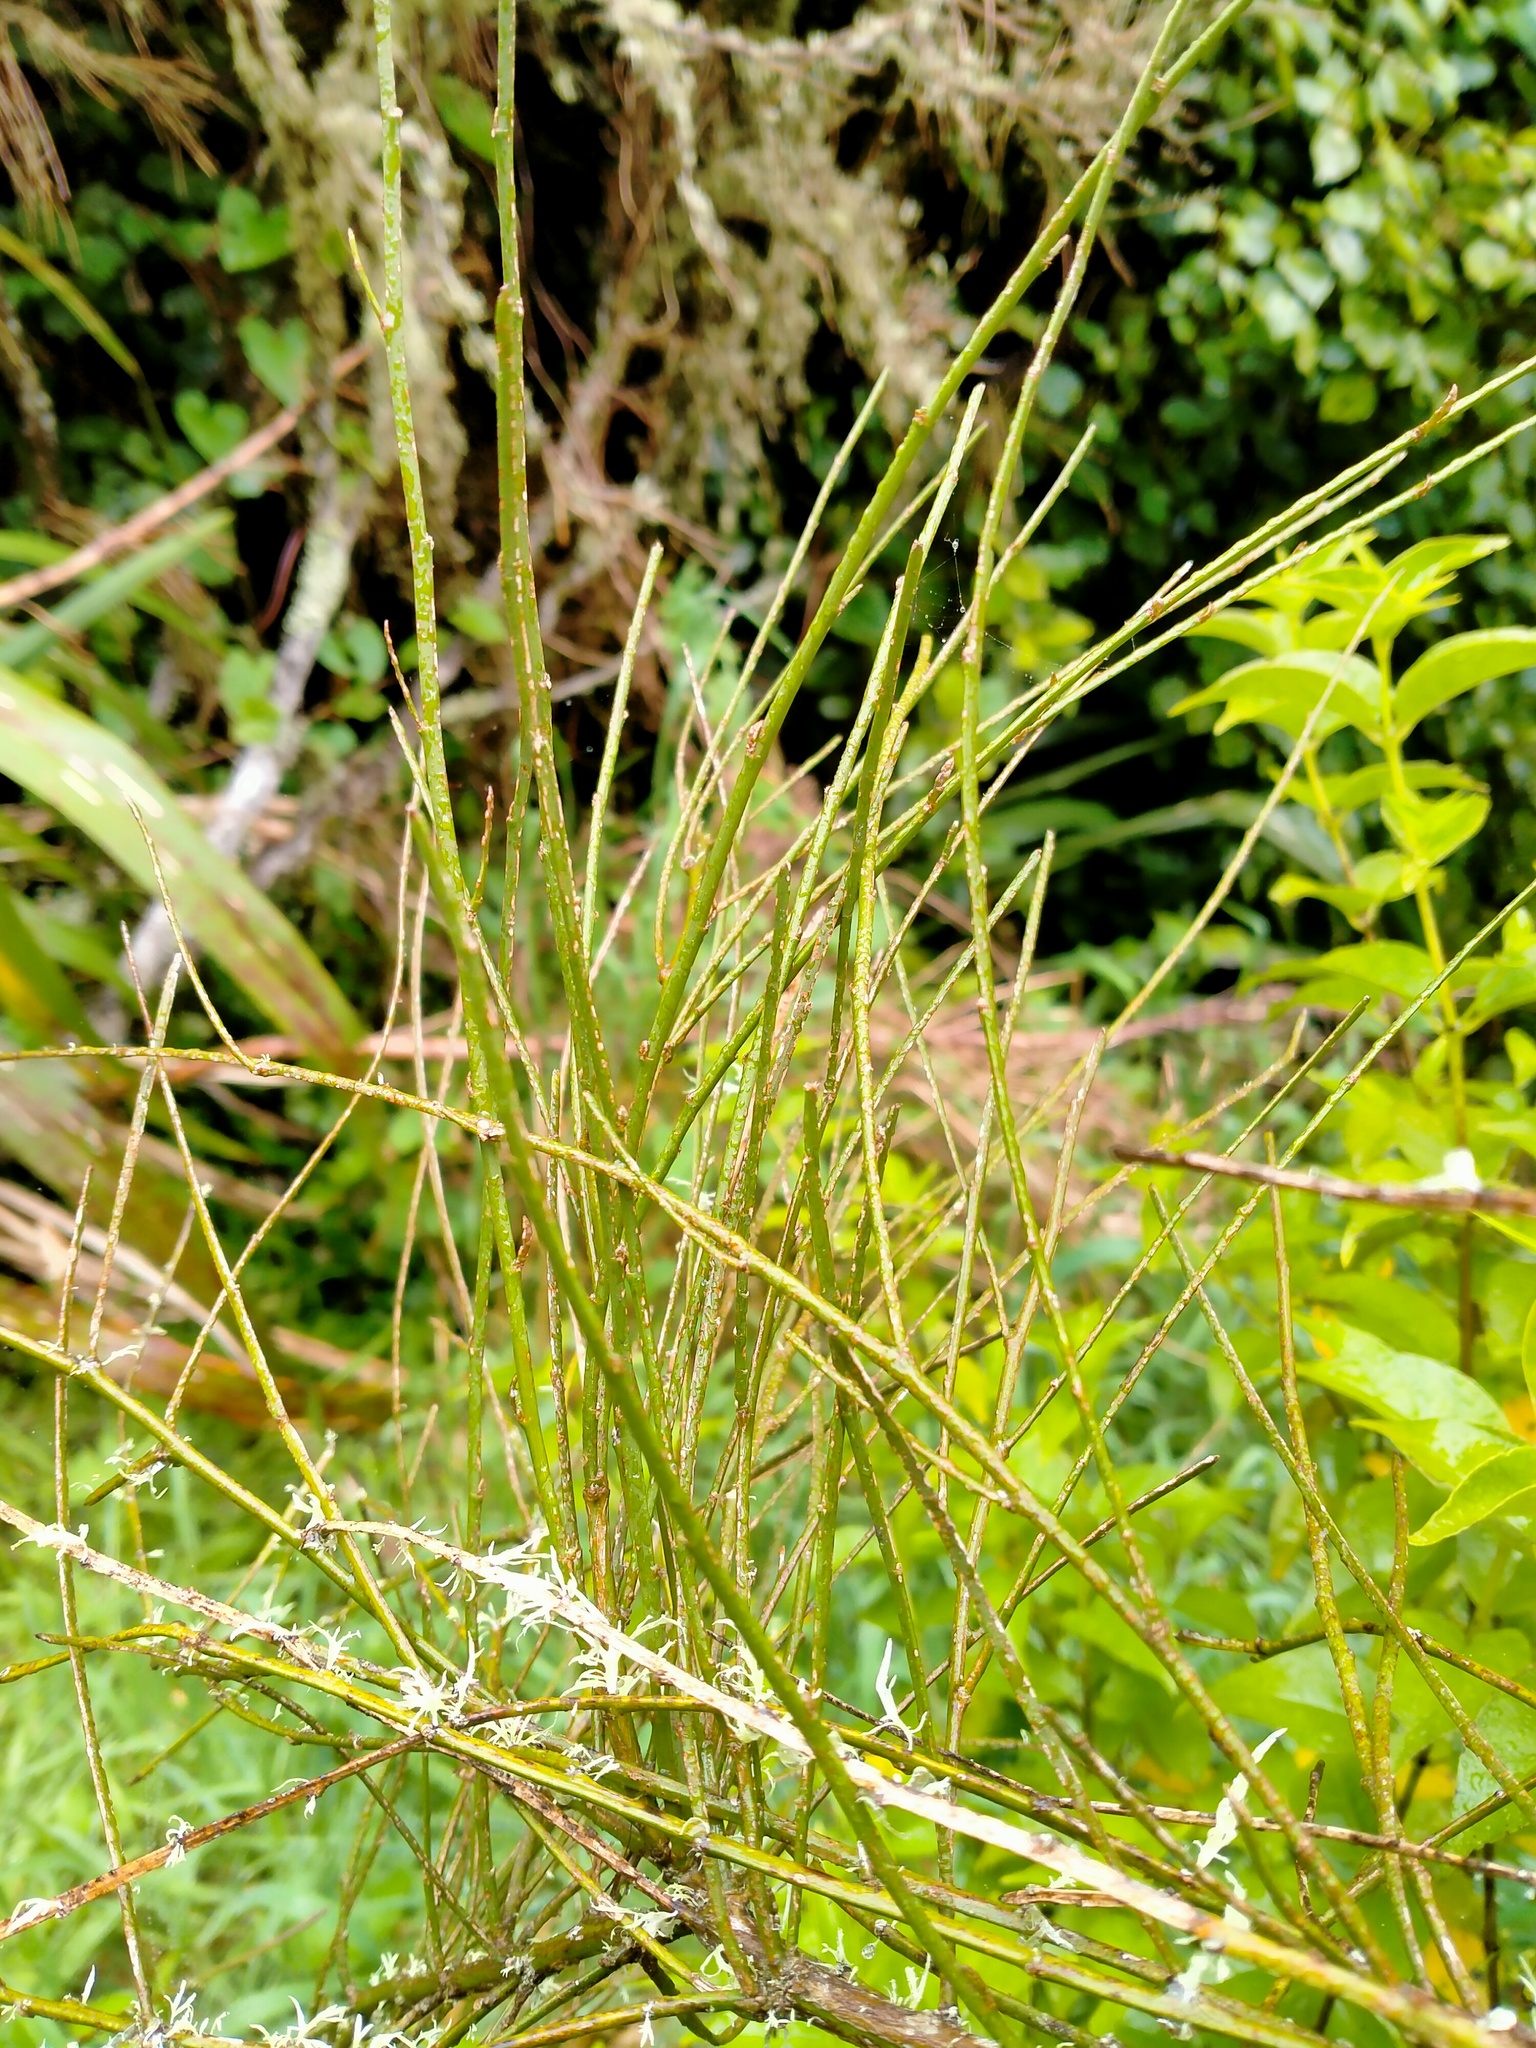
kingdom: Plantae
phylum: Tracheophyta
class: Magnoliopsida
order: Fabales
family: Fabaceae
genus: Carmichaelia
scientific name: Carmichaelia australis
